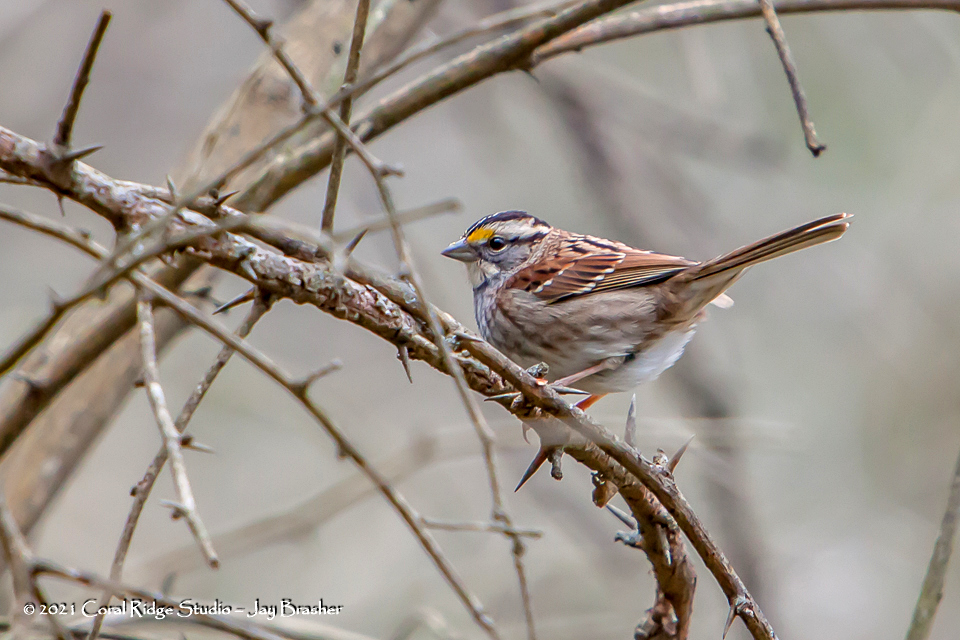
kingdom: Animalia
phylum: Chordata
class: Aves
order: Passeriformes
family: Passerellidae
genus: Zonotrichia
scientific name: Zonotrichia albicollis
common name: White-throated sparrow
